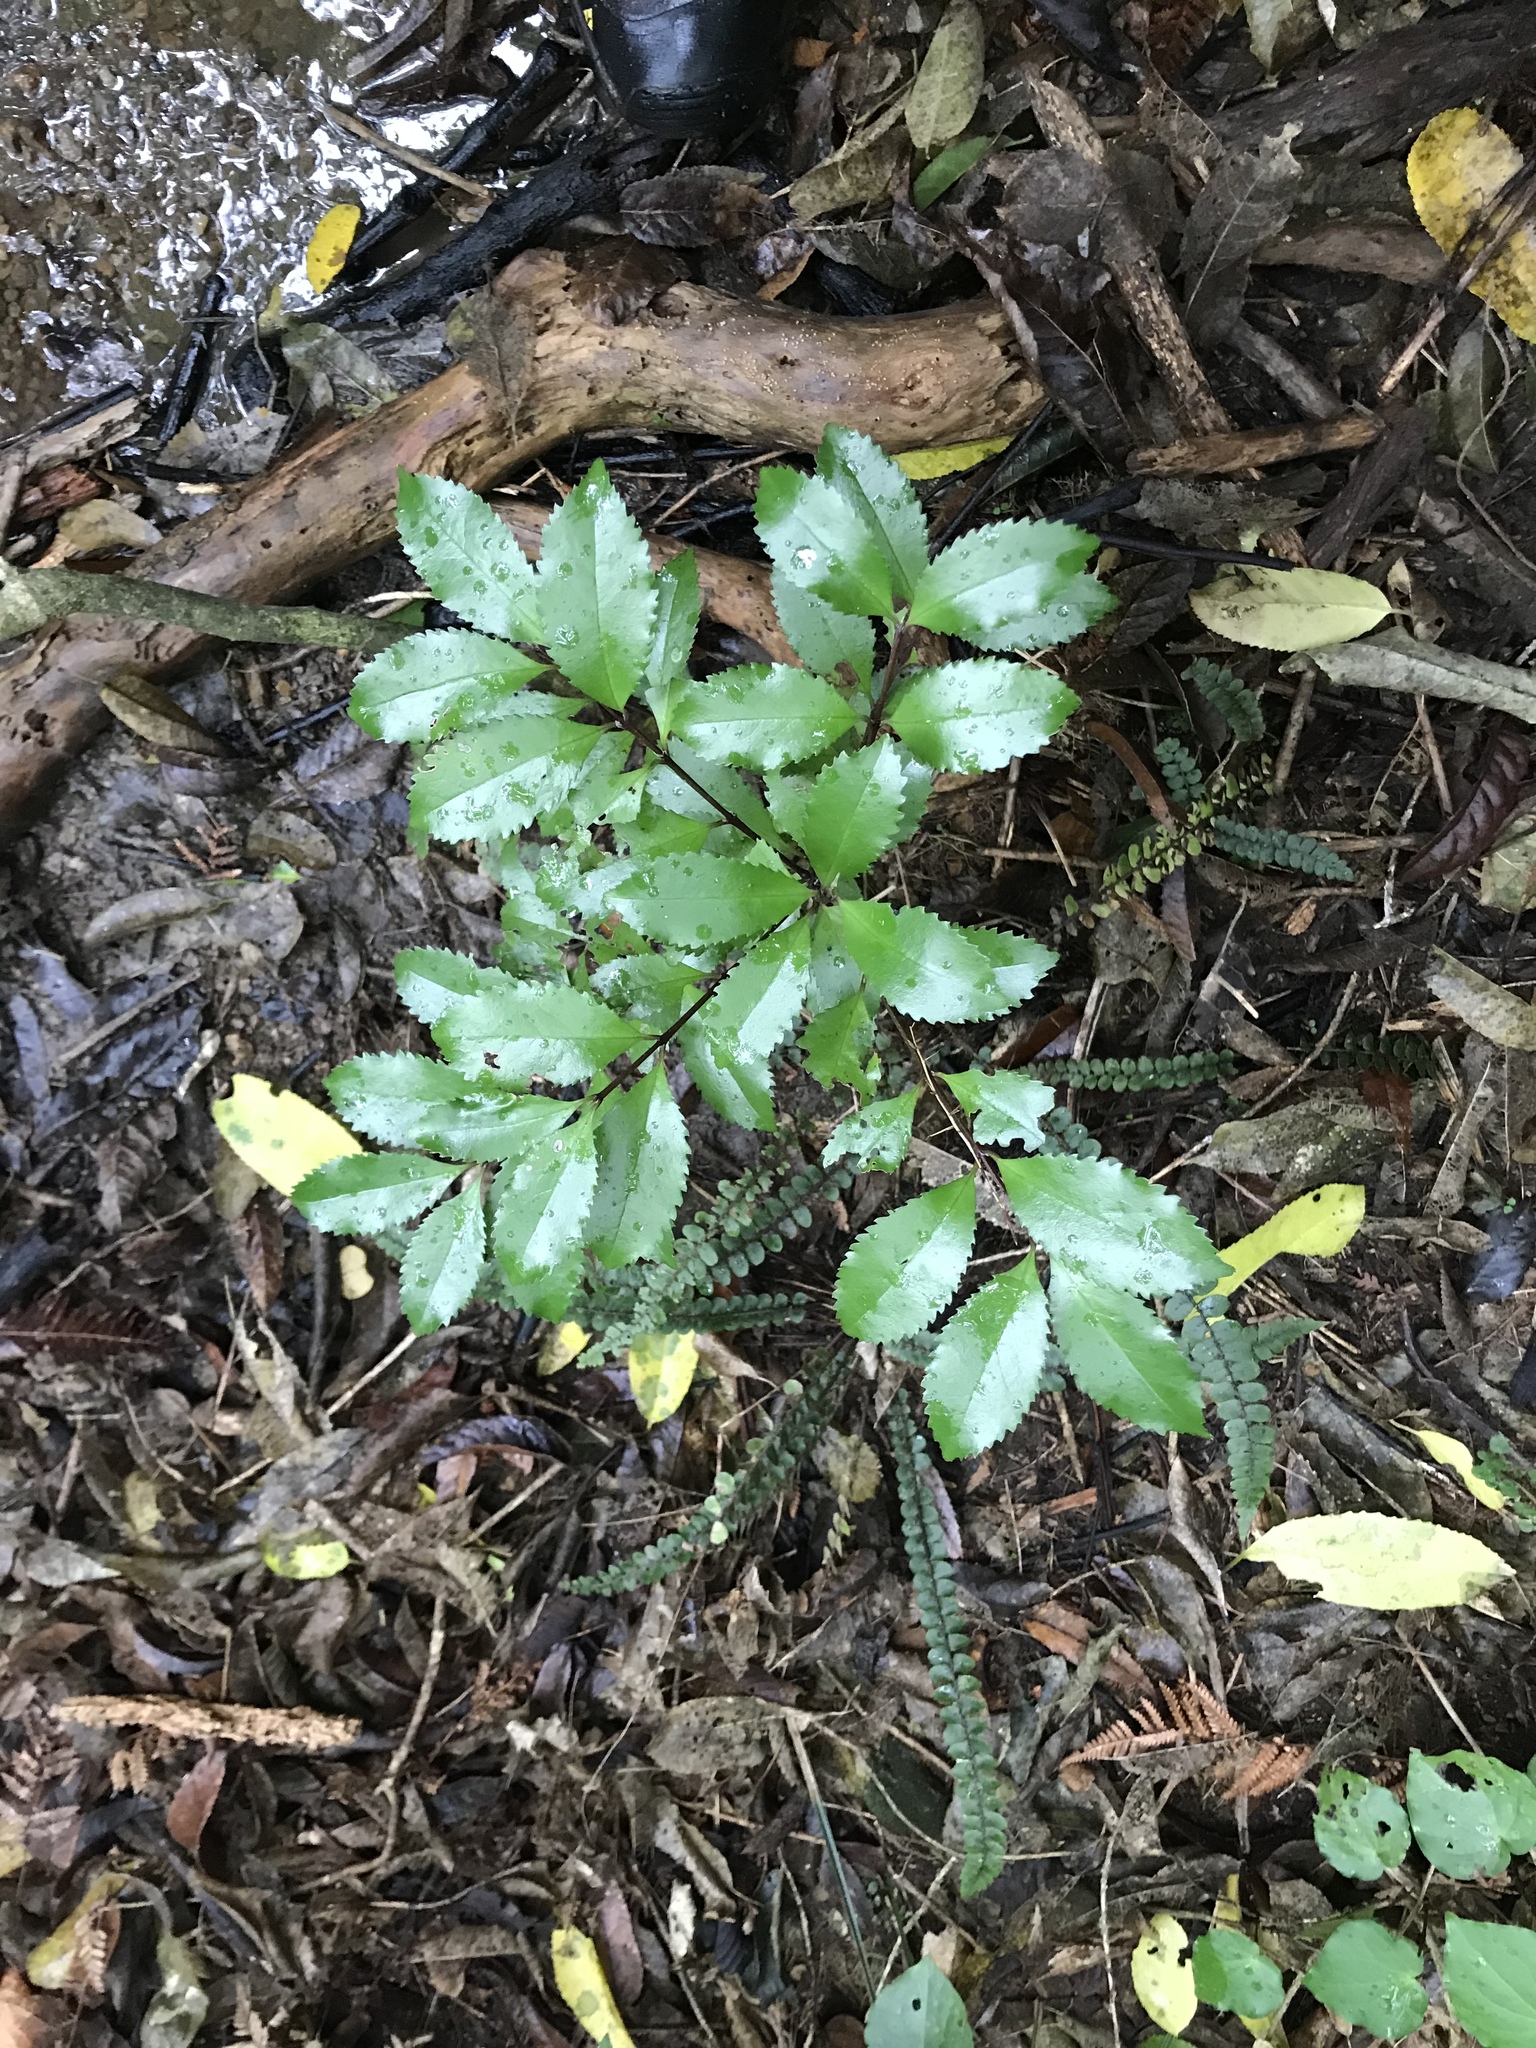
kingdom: Plantae
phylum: Tracheophyta
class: Magnoliopsida
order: Laurales
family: Atherospermataceae
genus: Laurelia
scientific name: Laurelia novae-zelandiae
